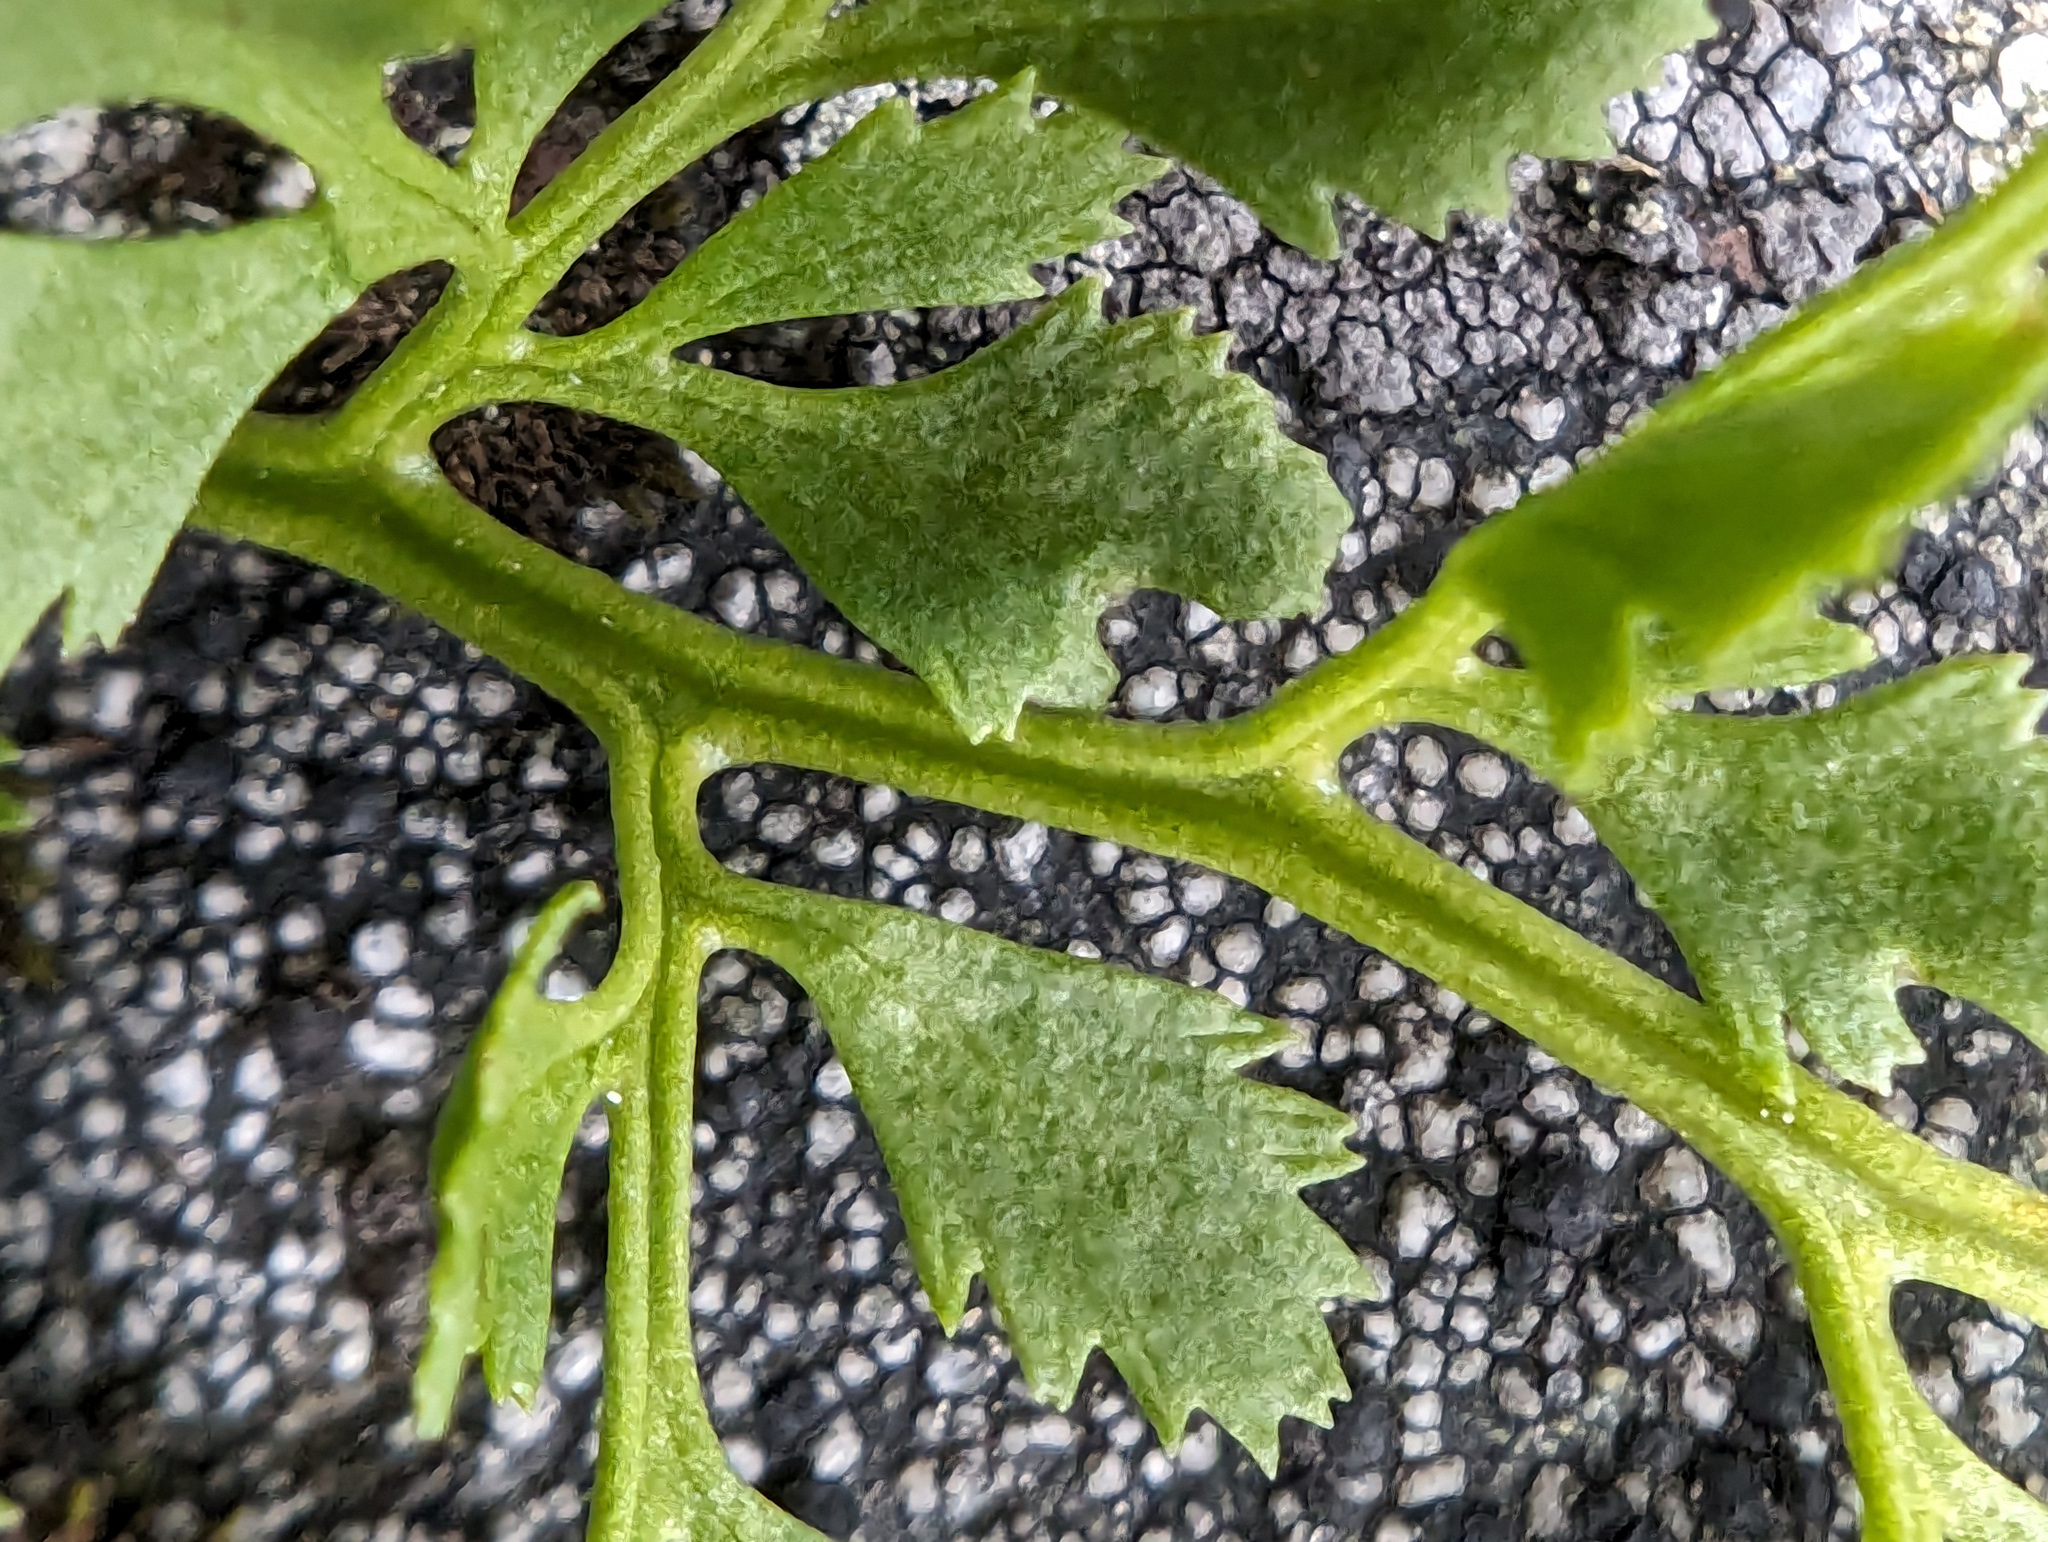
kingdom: Plantae
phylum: Tracheophyta
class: Polypodiopsida
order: Polypodiales
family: Pteridaceae
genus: Cryptogramma
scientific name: Cryptogramma cascadensis
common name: Cascade parsley fern
